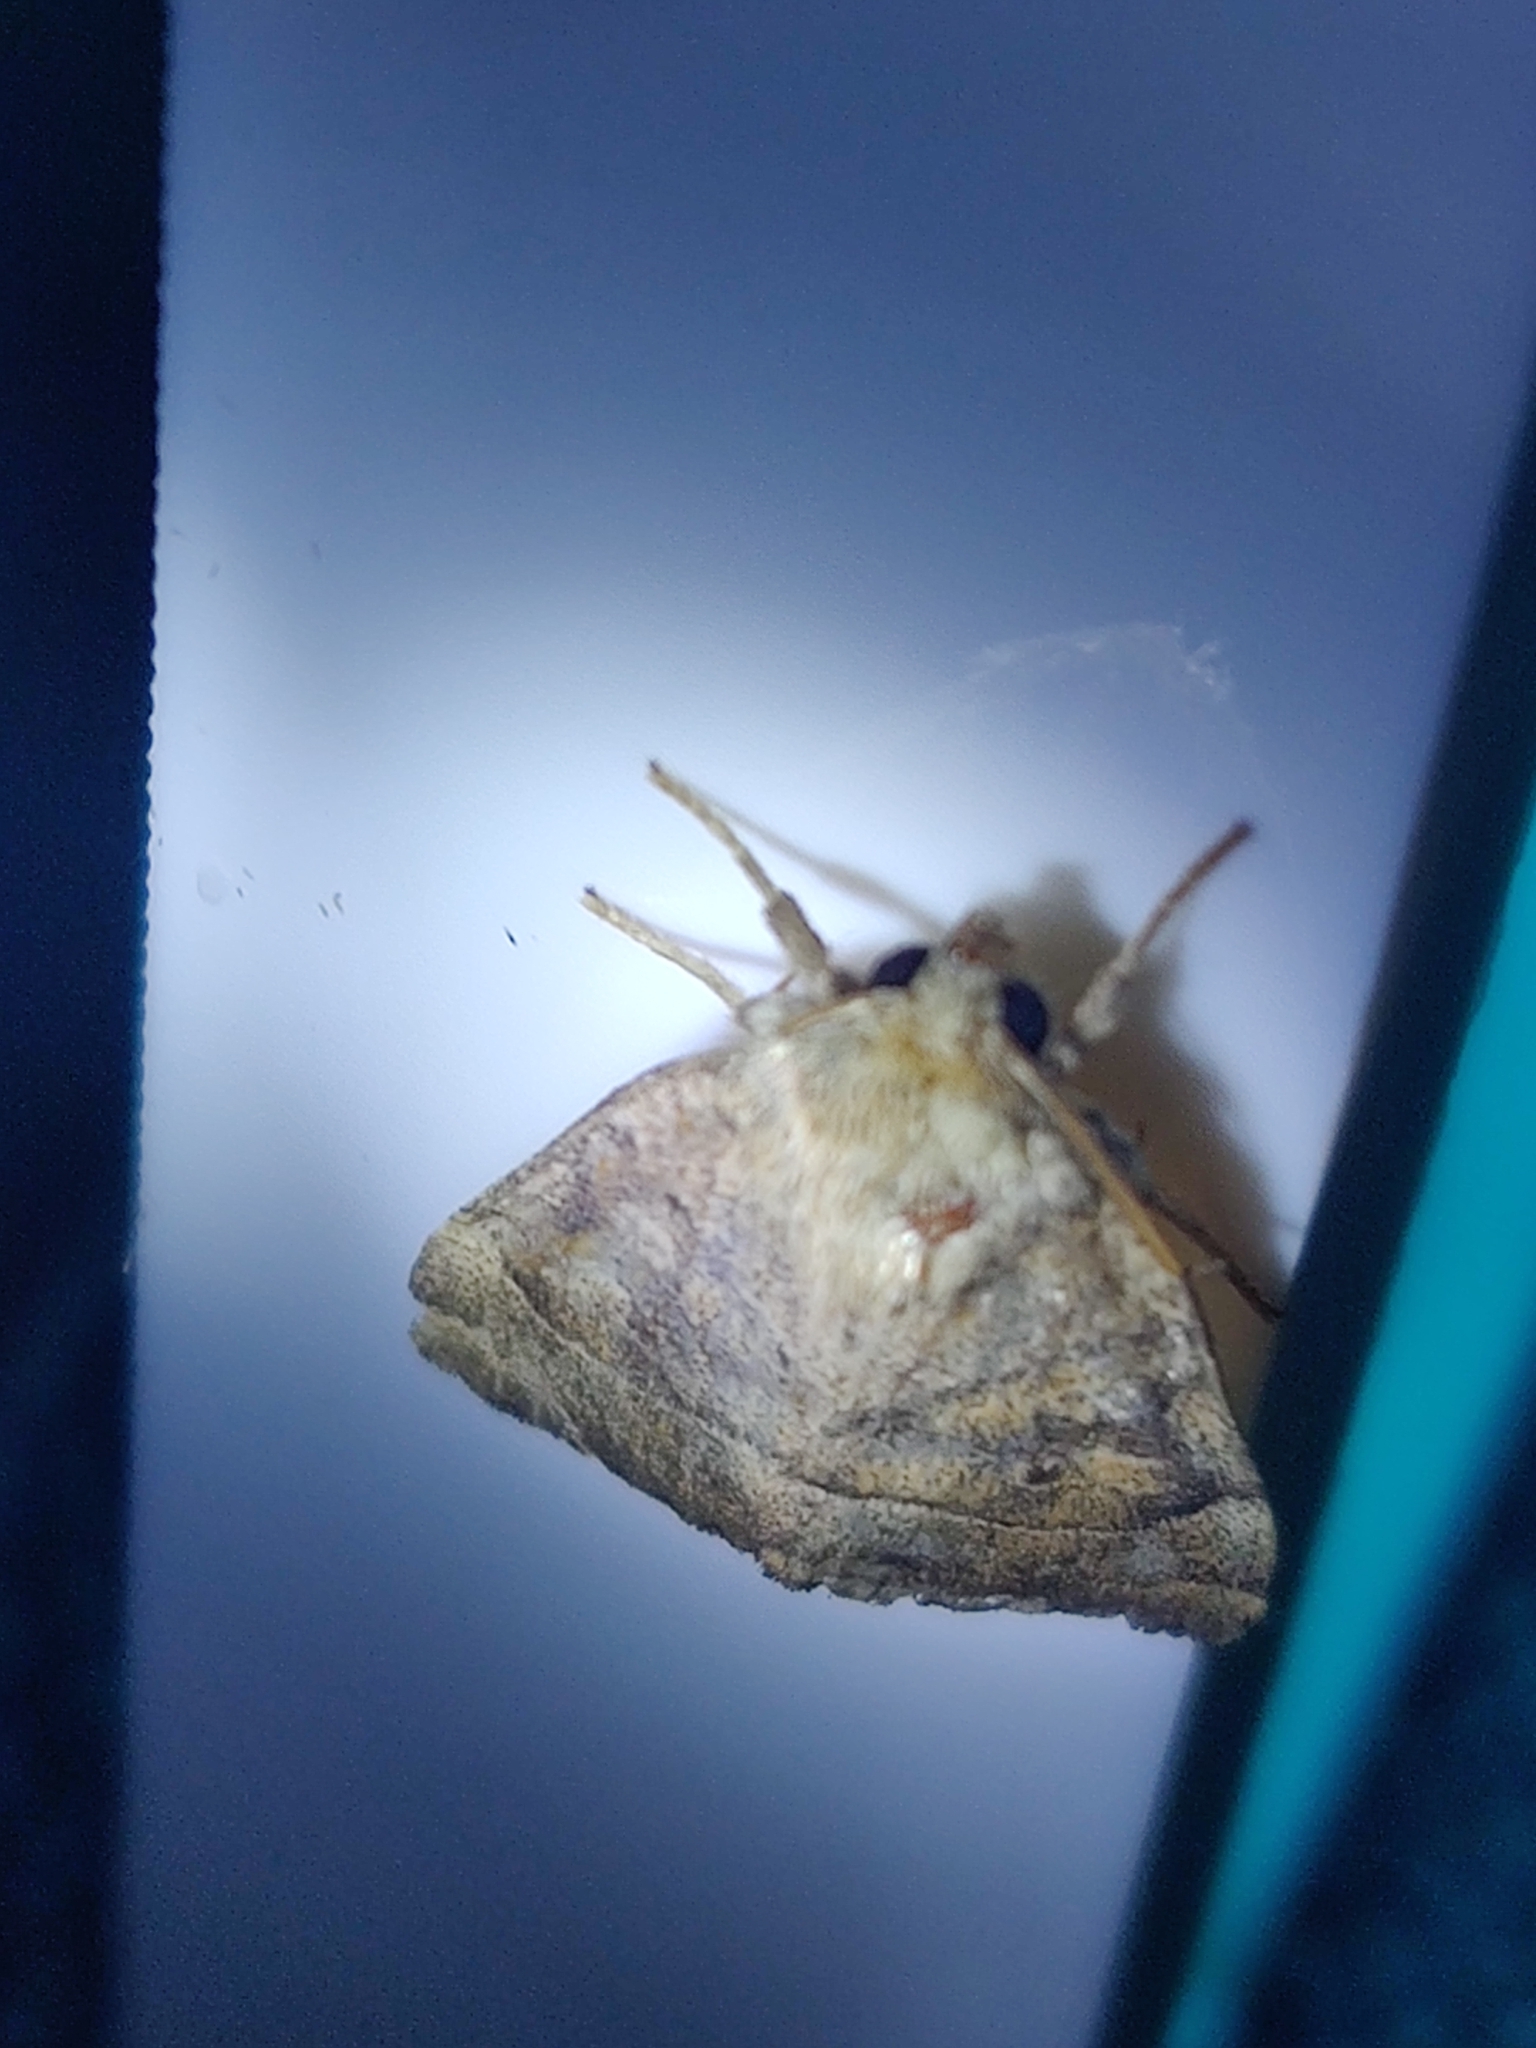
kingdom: Animalia
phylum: Arthropoda
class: Insecta
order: Lepidoptera
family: Noctuidae
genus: Cosmia
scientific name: Cosmia trapezina
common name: Dun-bar
